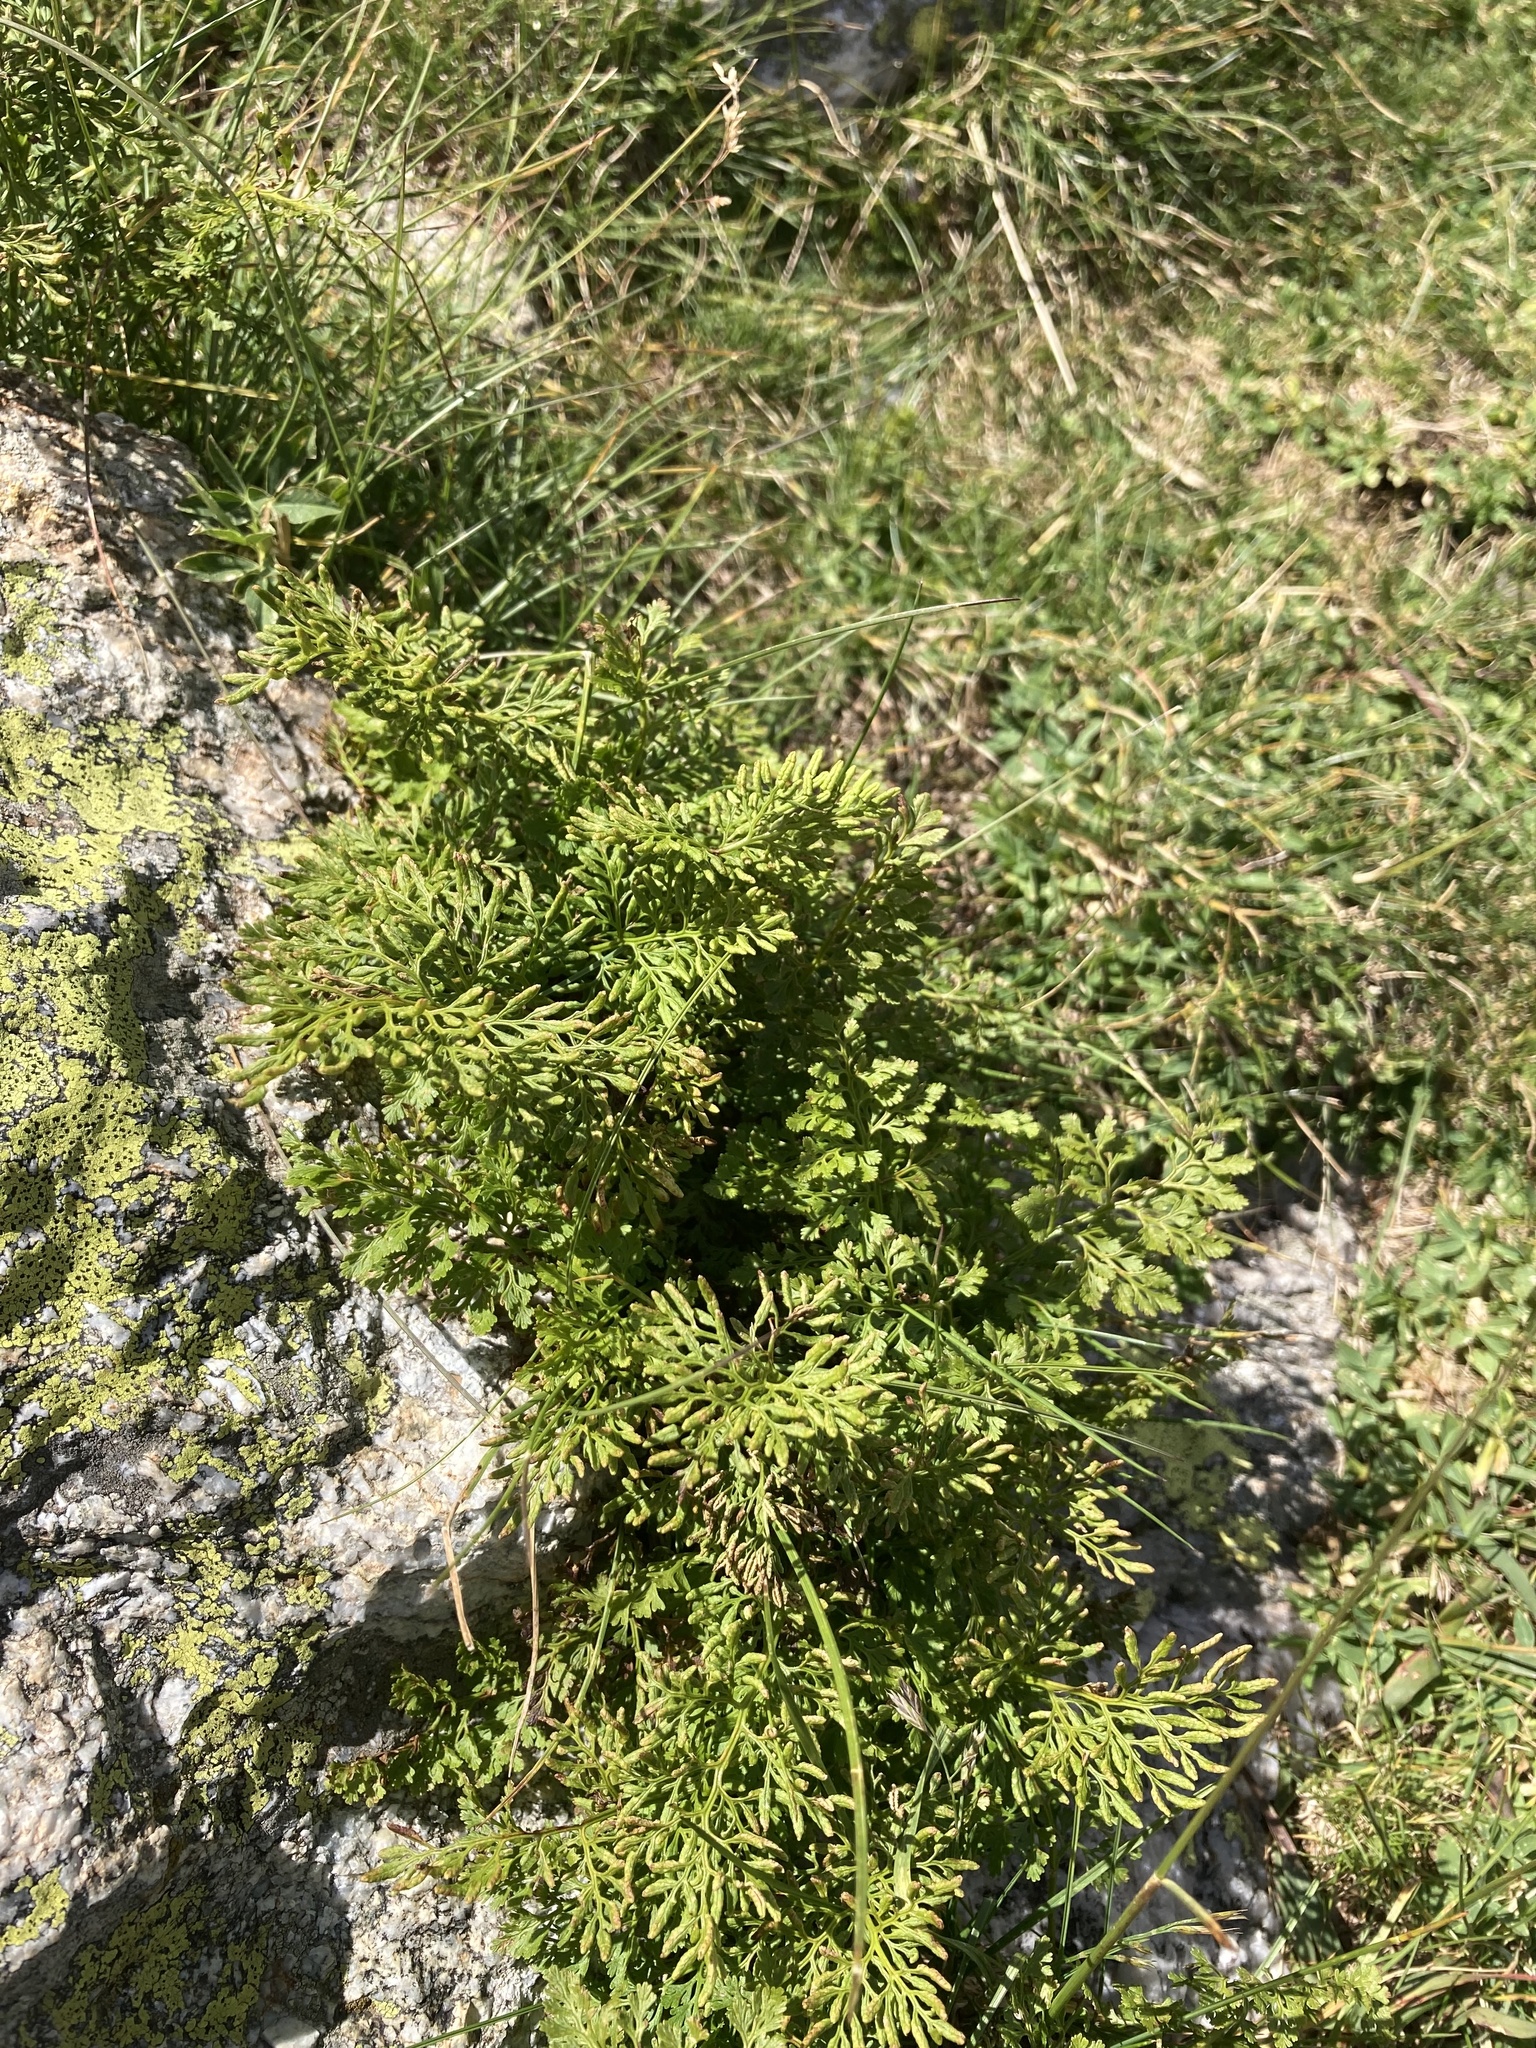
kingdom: Plantae
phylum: Tracheophyta
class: Polypodiopsida
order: Polypodiales
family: Pteridaceae
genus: Cryptogramma
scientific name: Cryptogramma crispa
